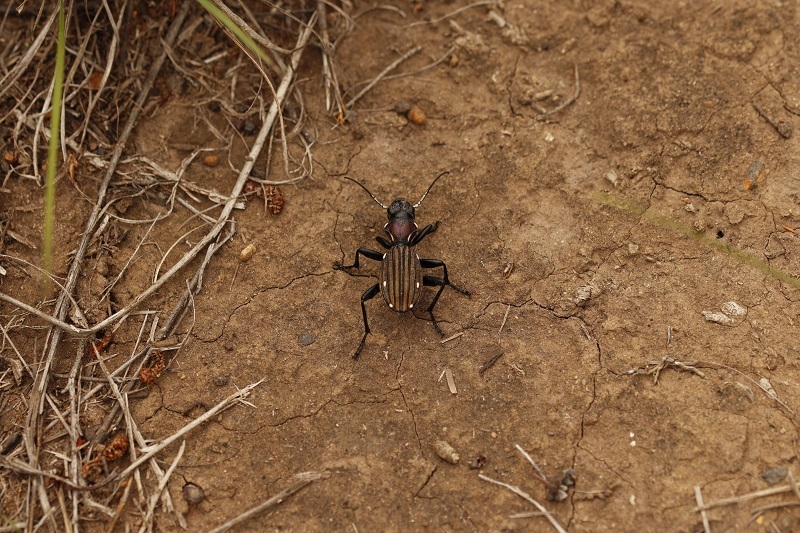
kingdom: Animalia
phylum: Arthropoda
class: Insecta
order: Coleoptera
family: Carabidae
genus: Anthia
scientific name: Anthia decemguttata
